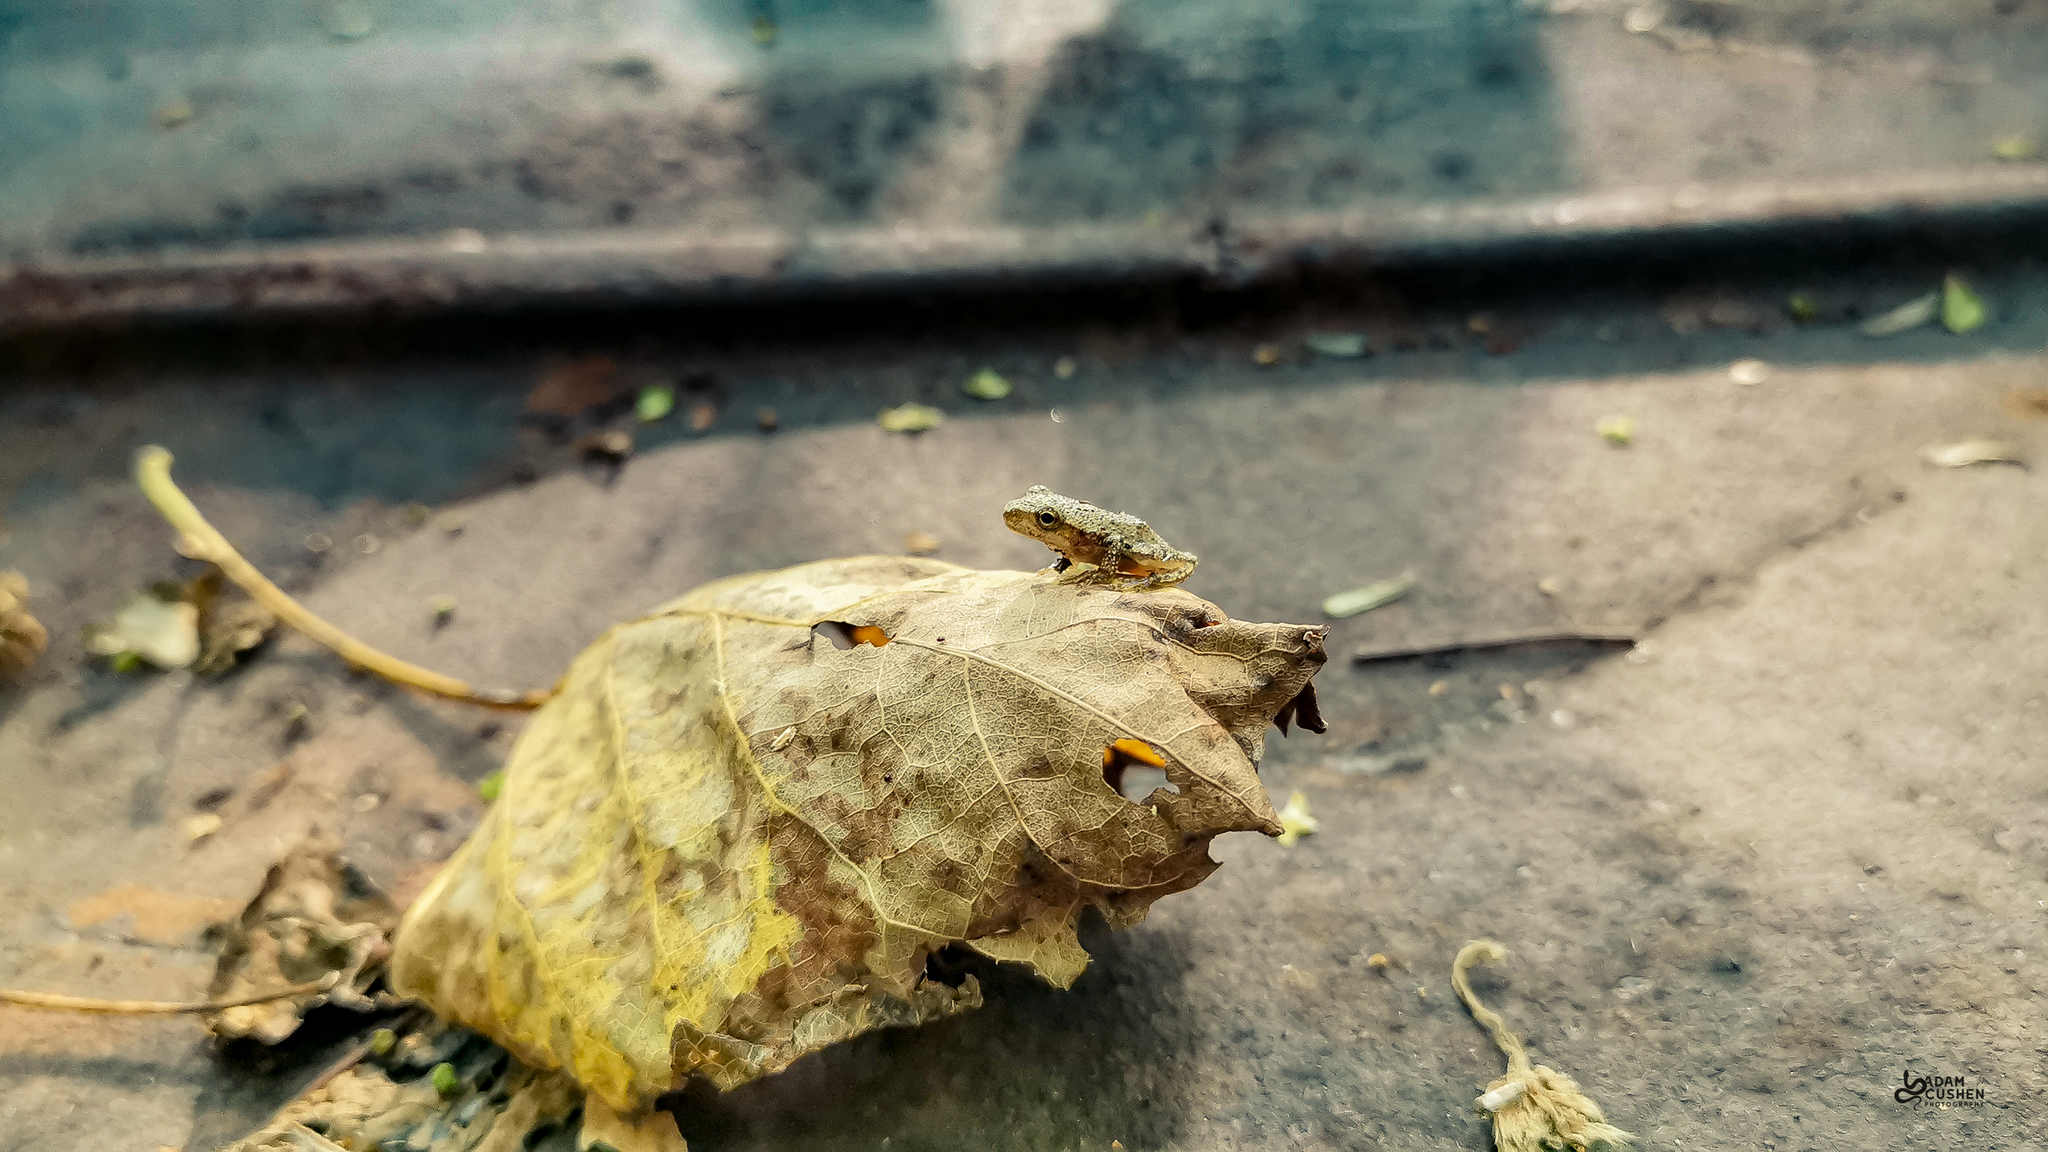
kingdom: Animalia
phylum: Chordata
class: Amphibia
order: Anura
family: Hylidae
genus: Pseudacris
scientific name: Pseudacris crucifer
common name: Spring peeper
